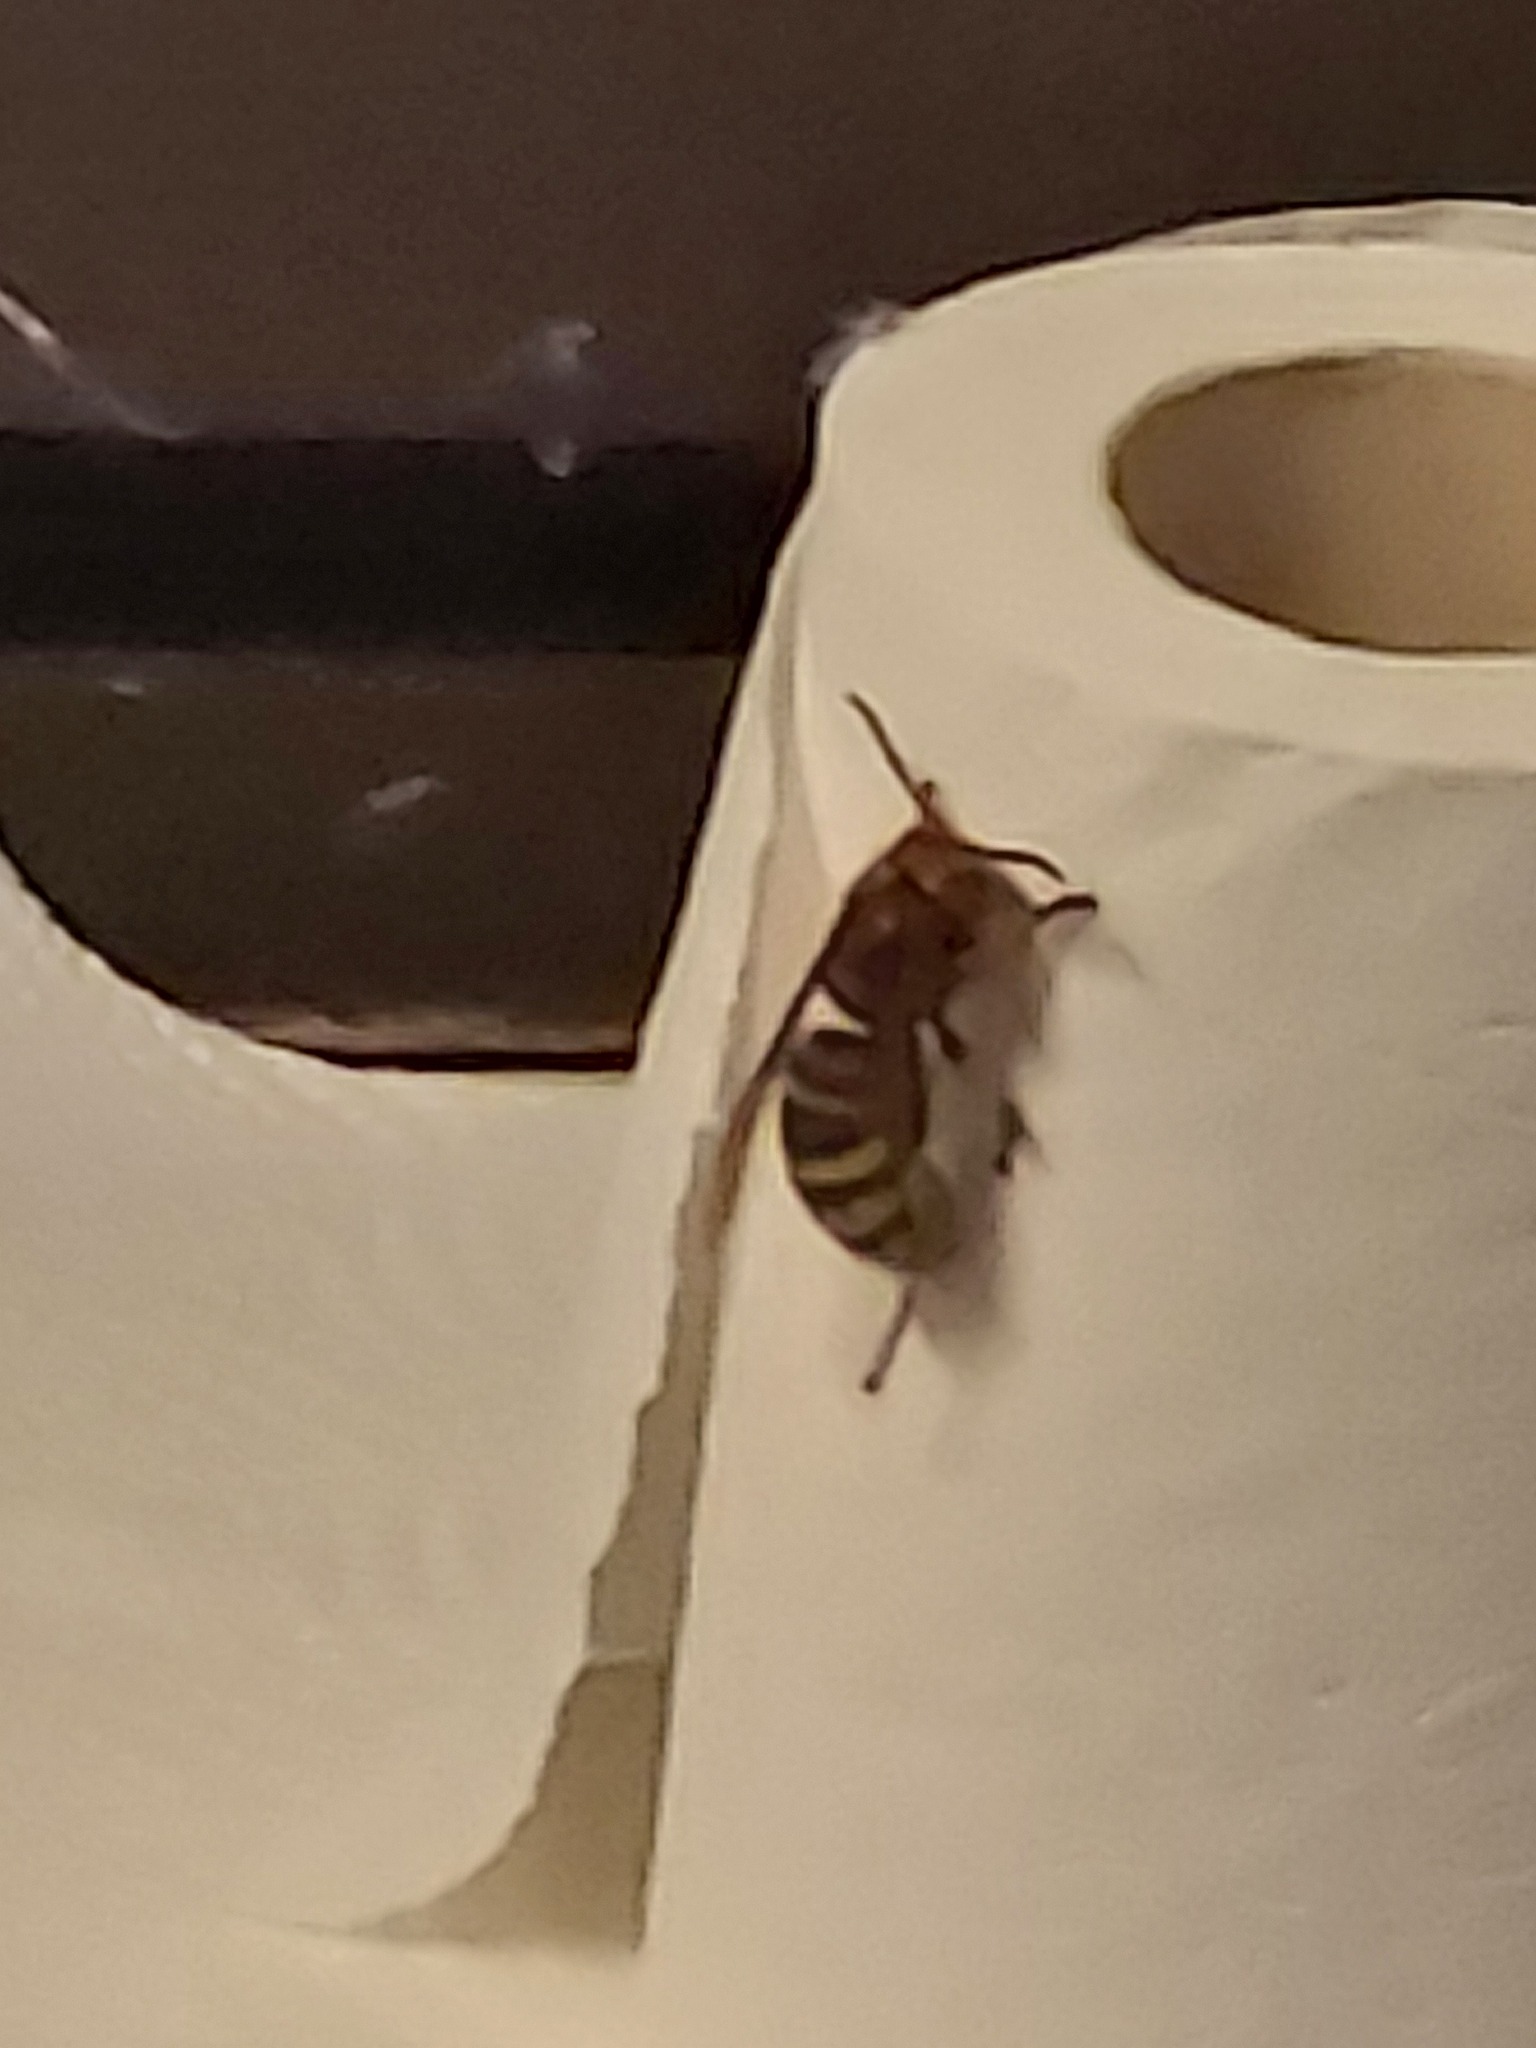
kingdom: Animalia
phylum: Arthropoda
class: Insecta
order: Hymenoptera
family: Vespidae
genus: Vespa
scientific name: Vespa crabro
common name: Hornet
